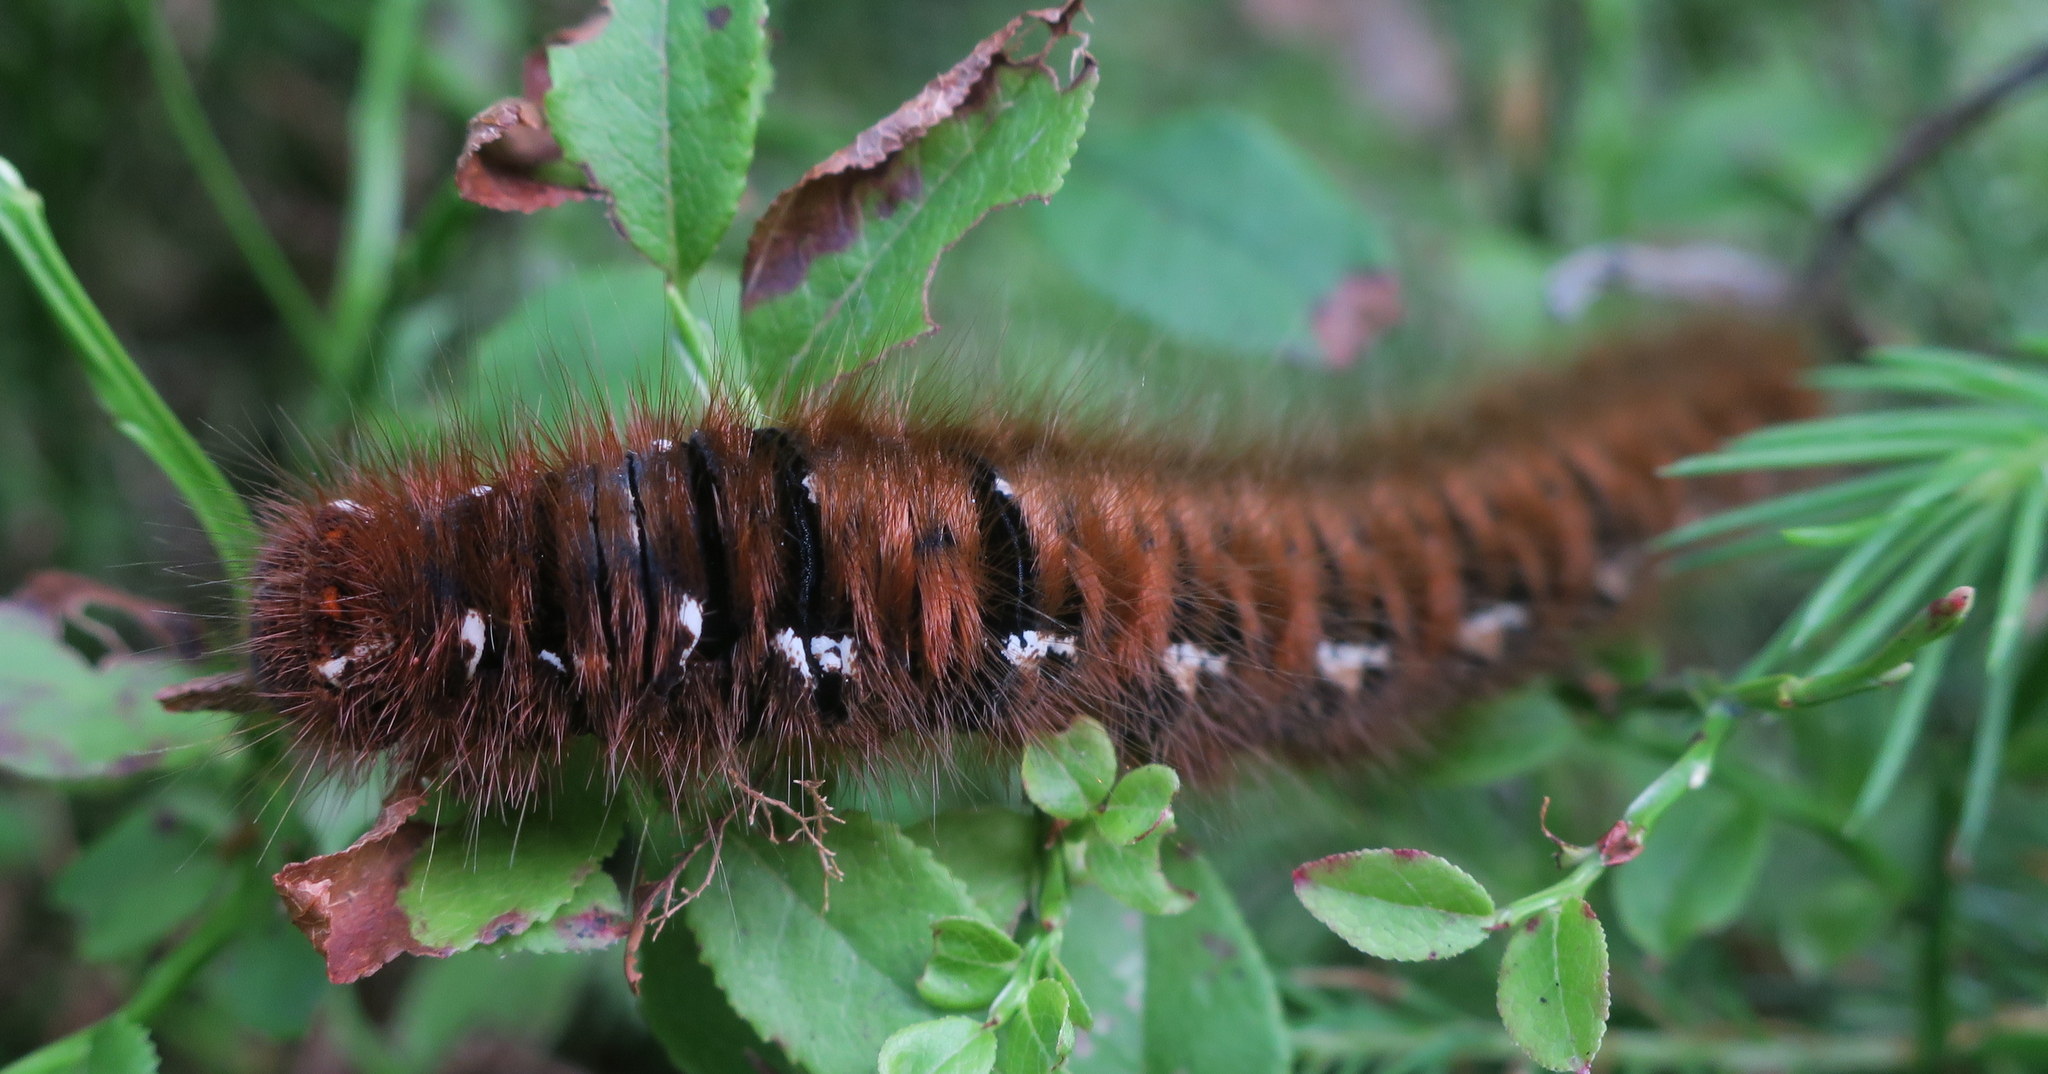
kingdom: Animalia
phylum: Arthropoda
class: Insecta
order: Lepidoptera
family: Lasiocampidae
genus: Lasiocampa
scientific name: Lasiocampa quercus
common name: Oak eggar
